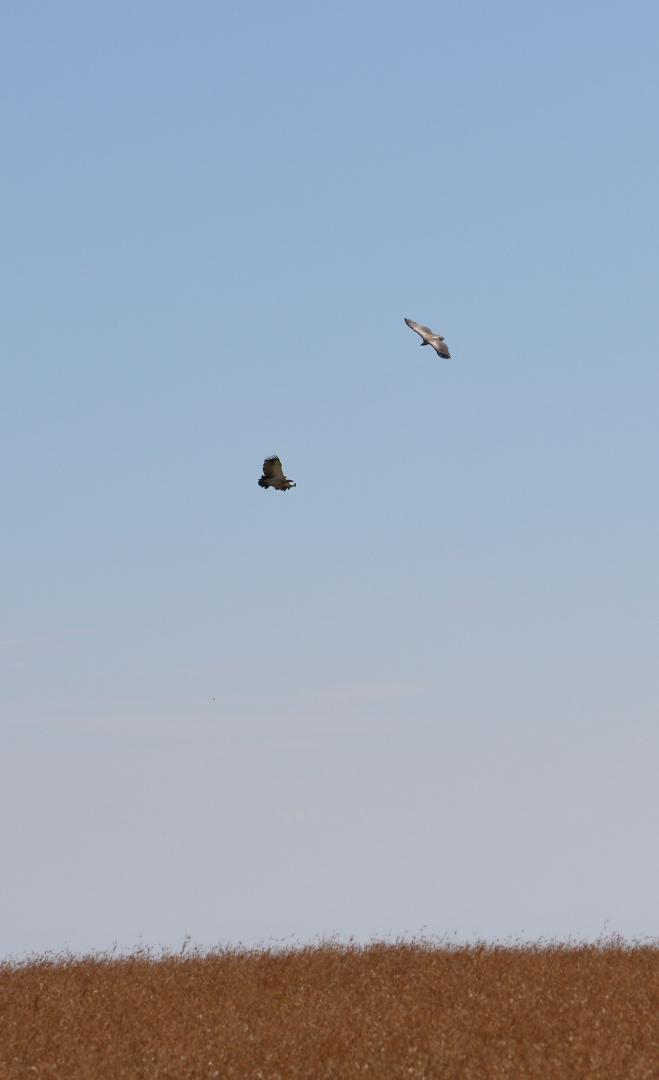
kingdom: Animalia
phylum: Chordata
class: Aves
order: Accipitriformes
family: Accipitridae
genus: Gyps
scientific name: Gyps coprotheres
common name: Cape vulture
